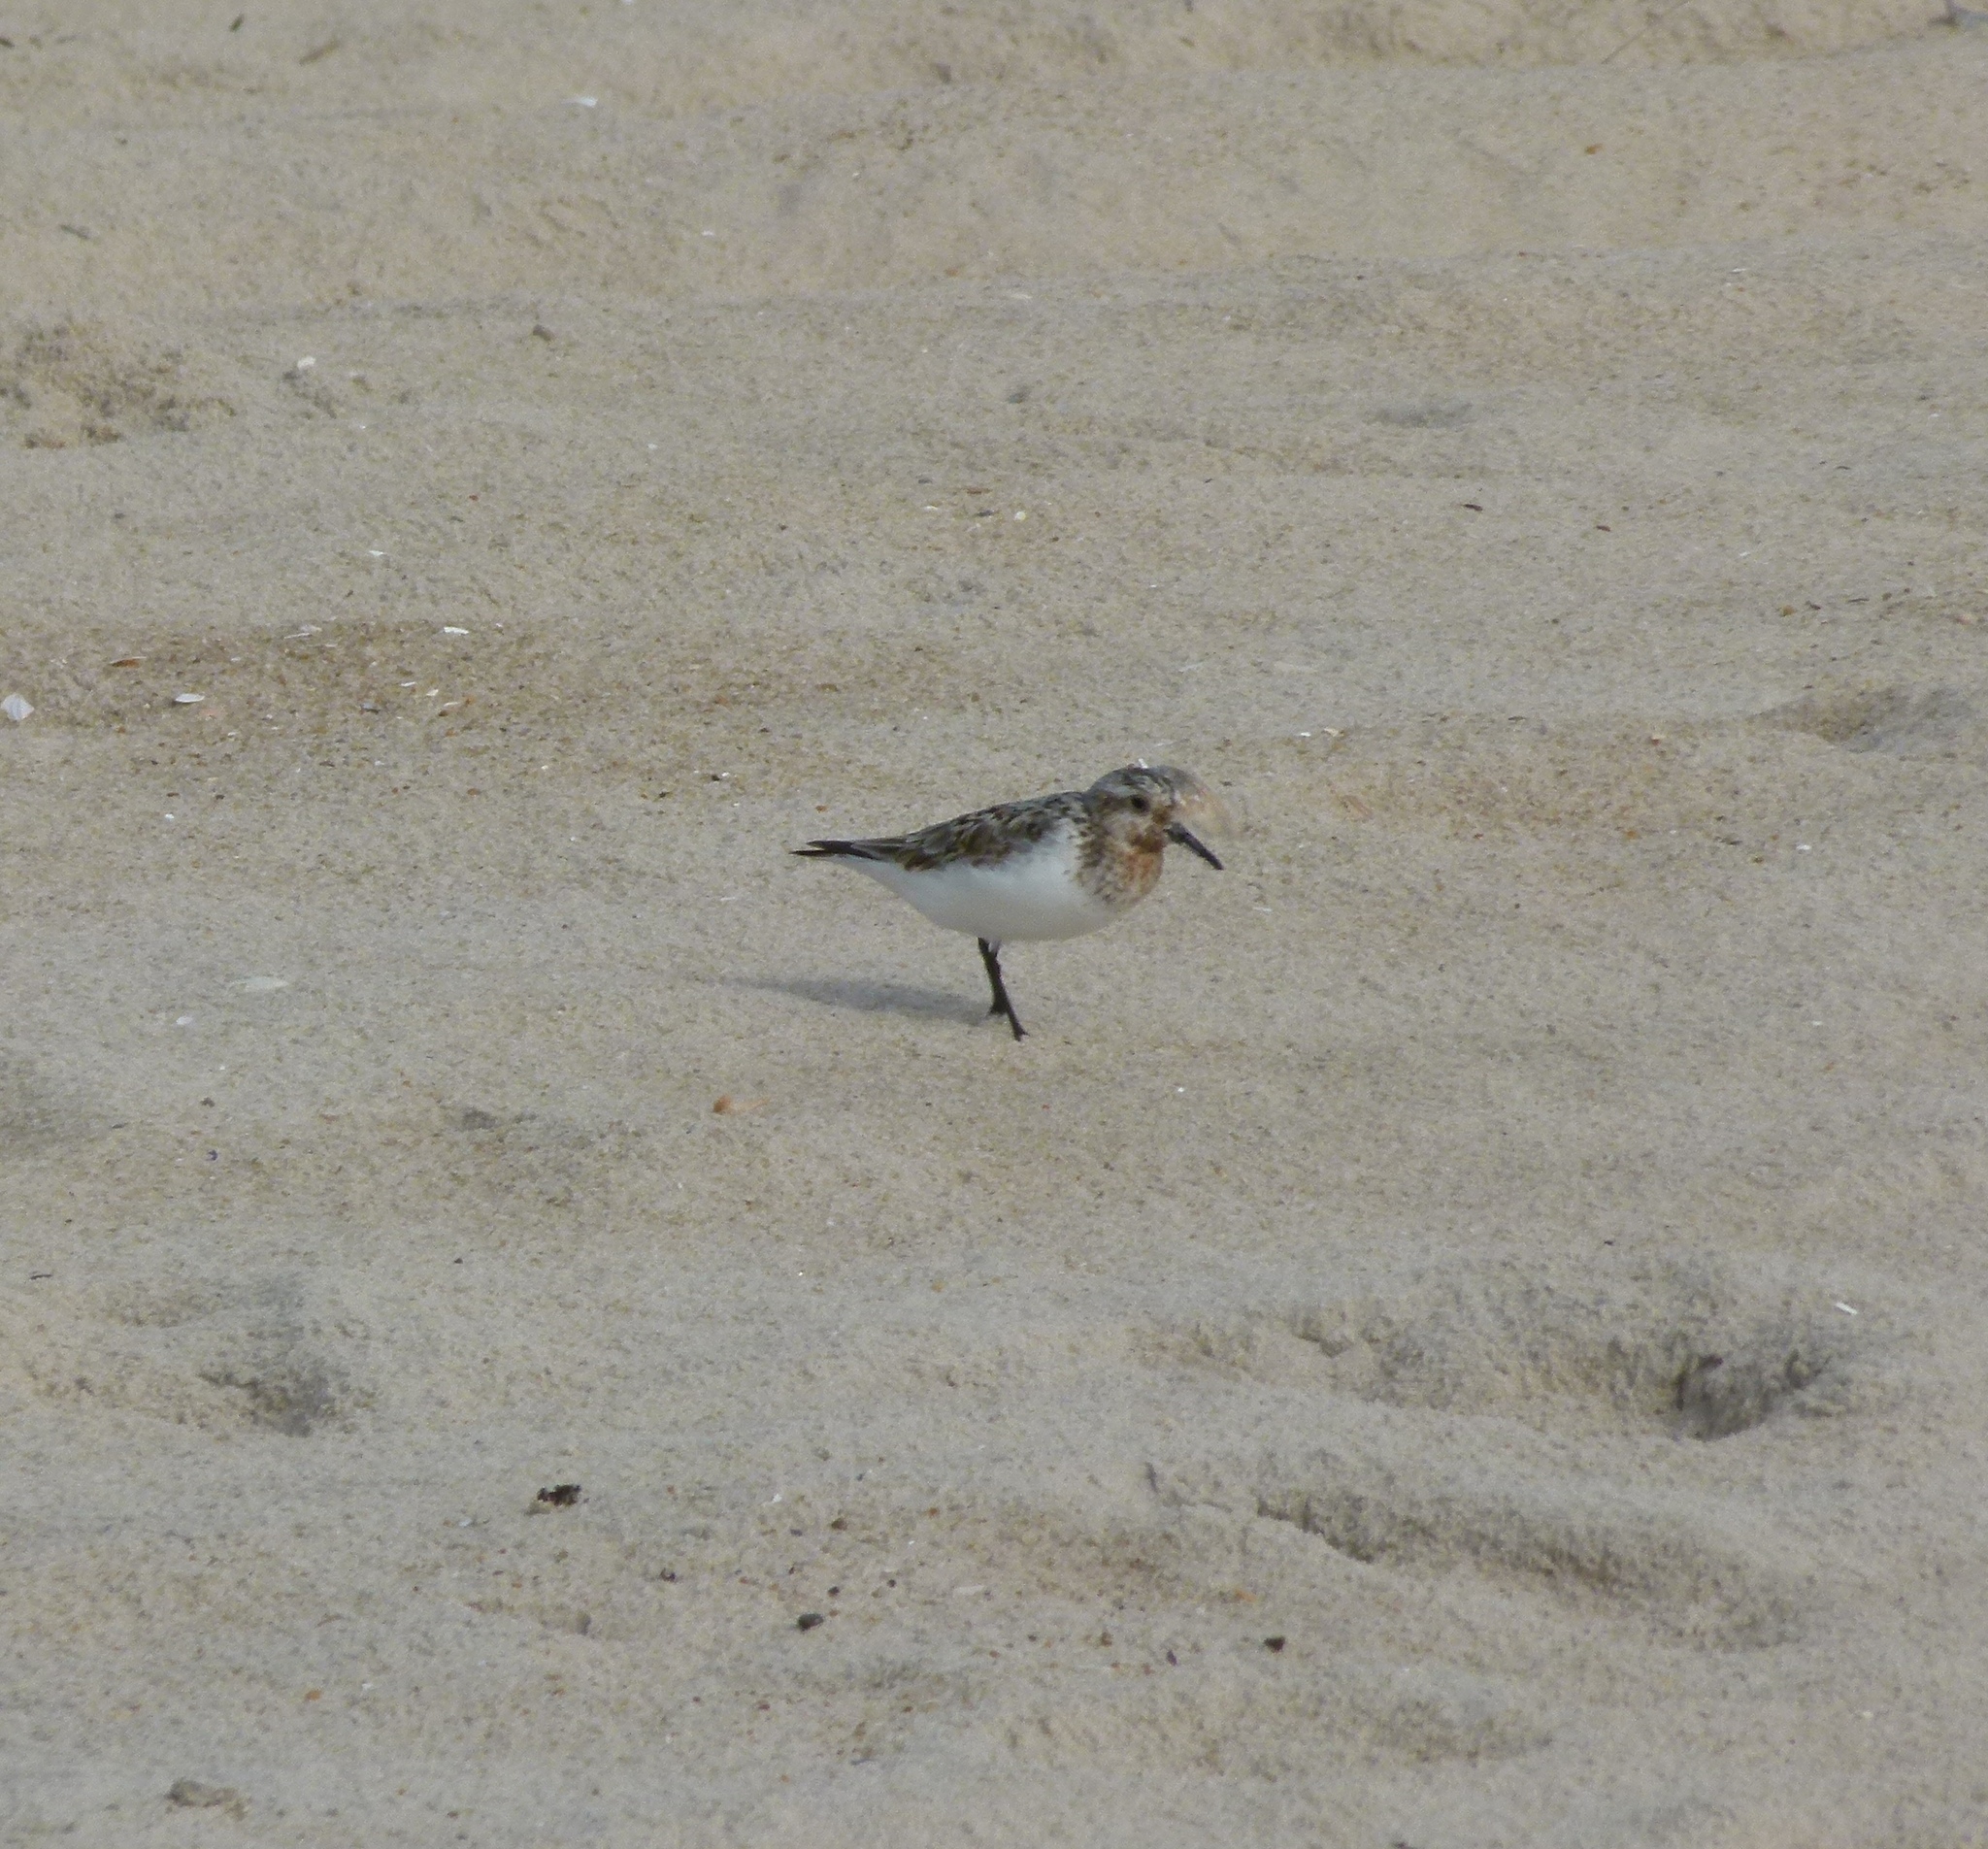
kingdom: Animalia
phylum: Chordata
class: Aves
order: Charadriiformes
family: Scolopacidae
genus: Calidris
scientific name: Calidris alba
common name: Sanderling
